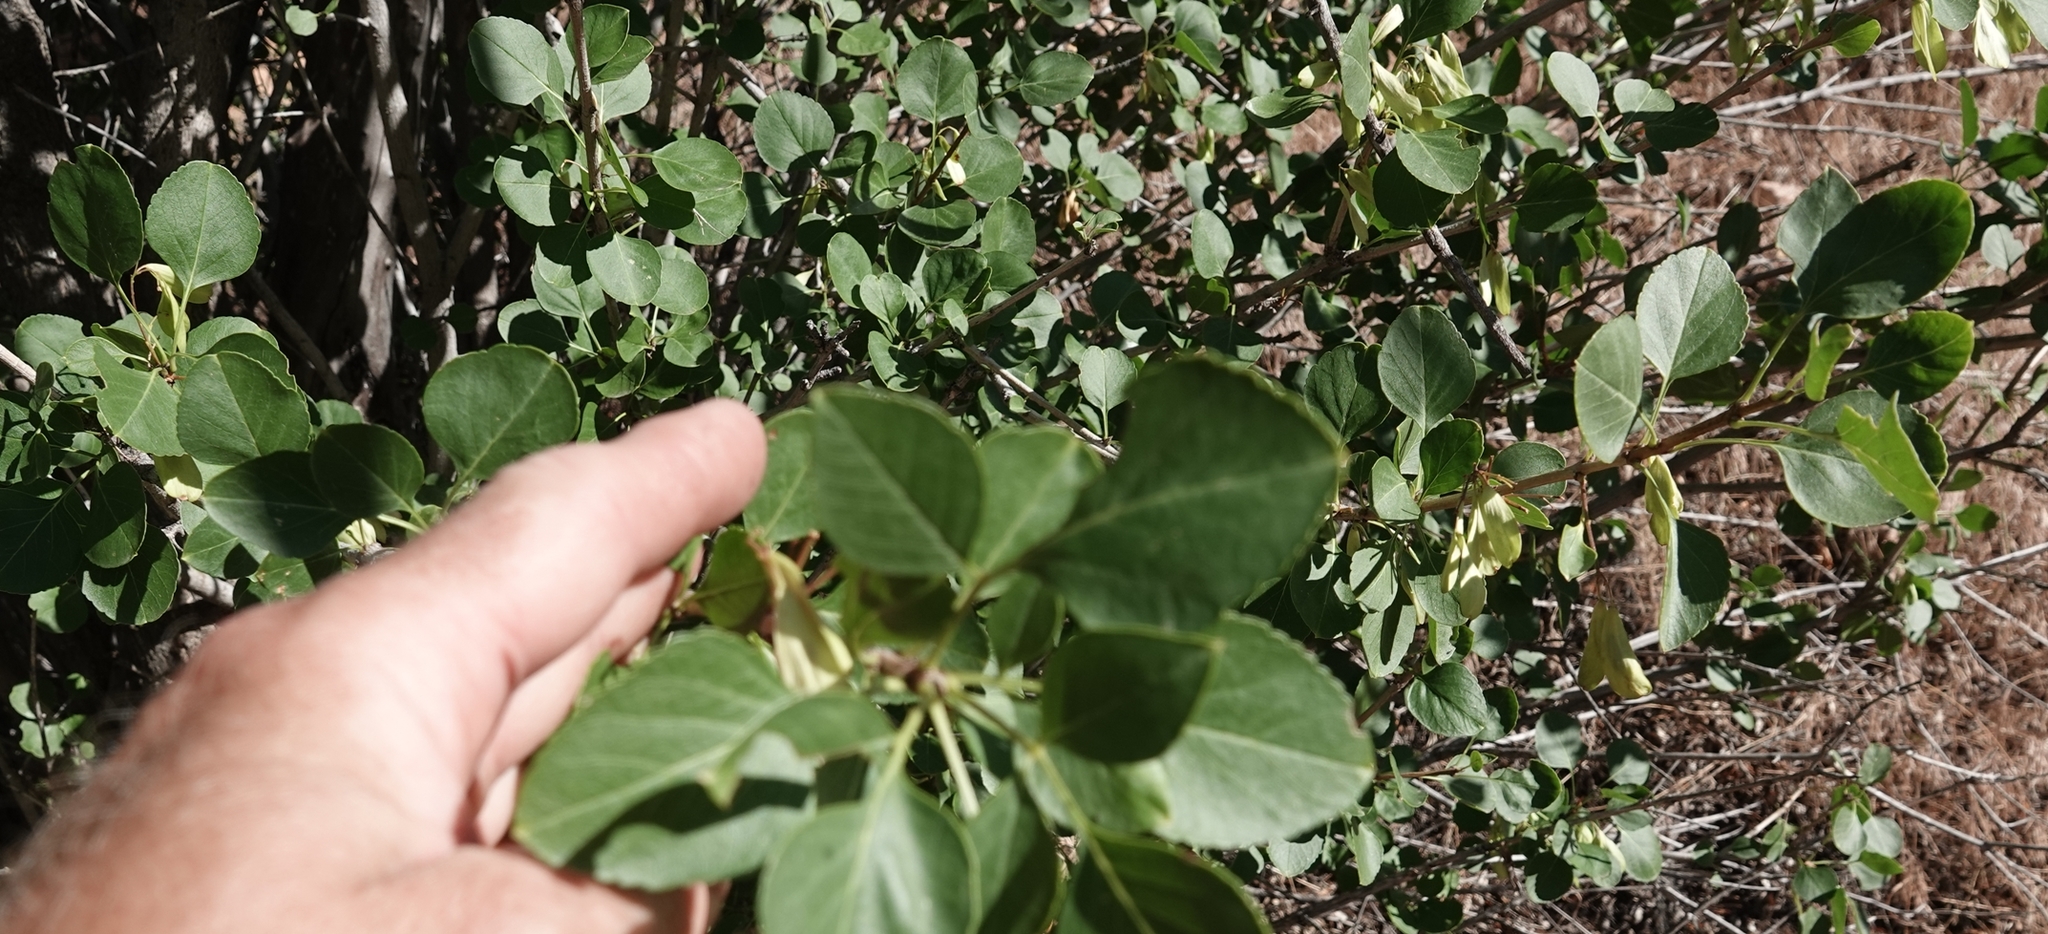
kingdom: Plantae
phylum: Tracheophyta
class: Magnoliopsida
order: Lamiales
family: Oleaceae
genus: Fraxinus
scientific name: Fraxinus anomala
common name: Utah ash
